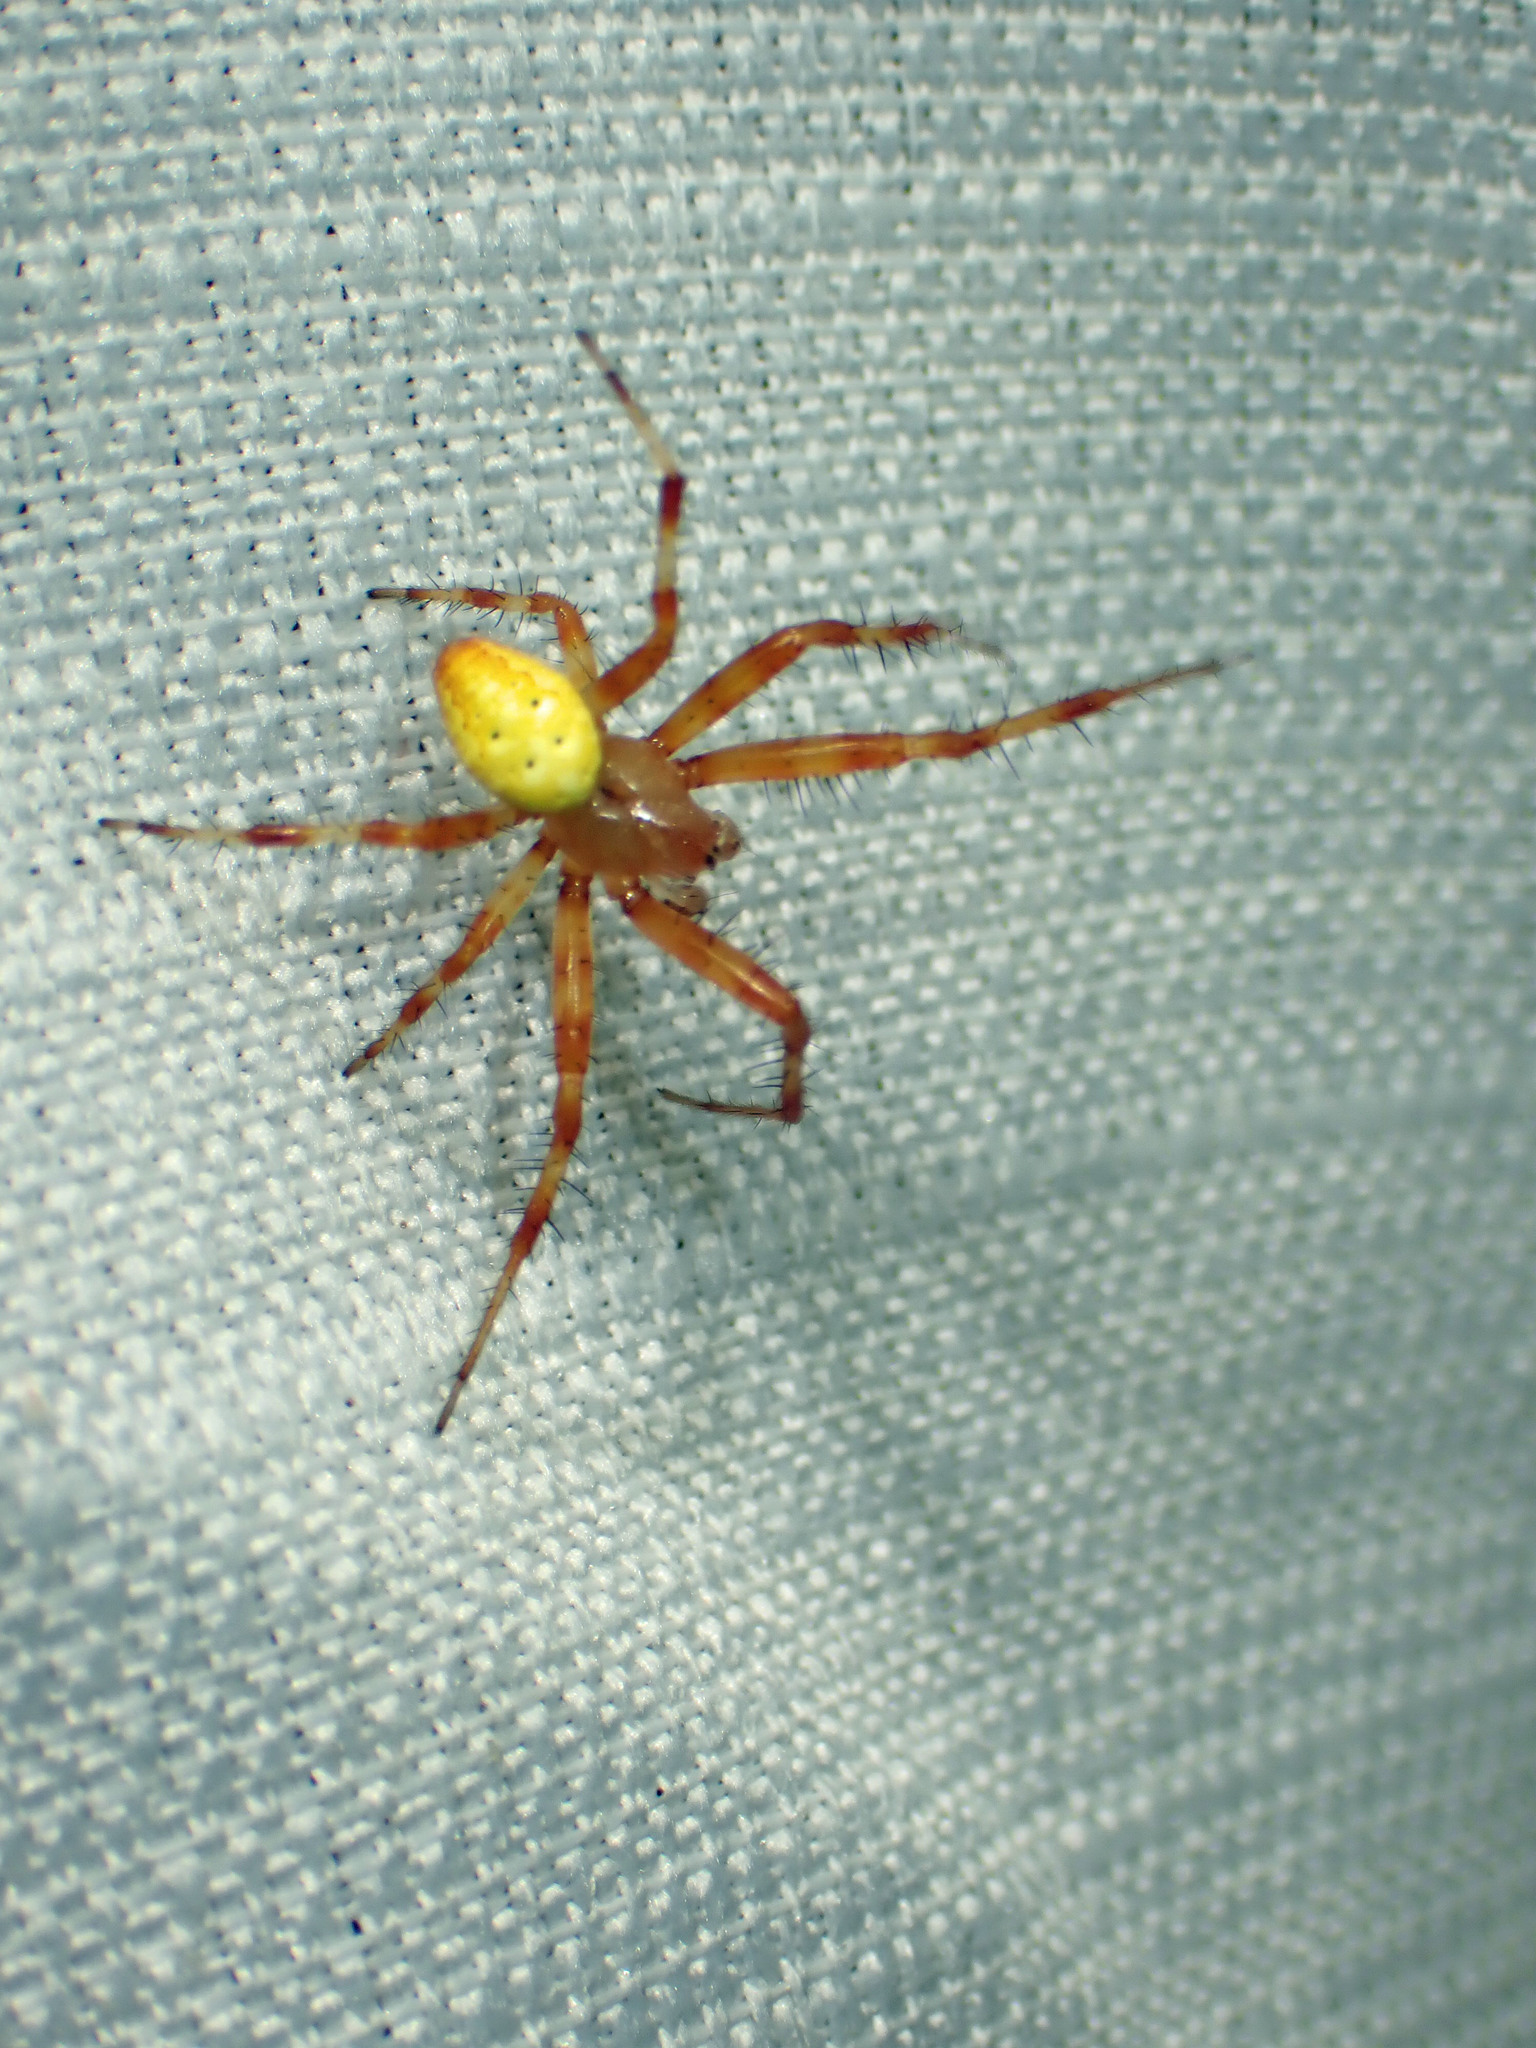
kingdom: Animalia
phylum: Arthropoda
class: Arachnida
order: Araneae
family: Araneidae
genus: Araneus
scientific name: Araneus trifolium
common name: Shamrock orbweaver
